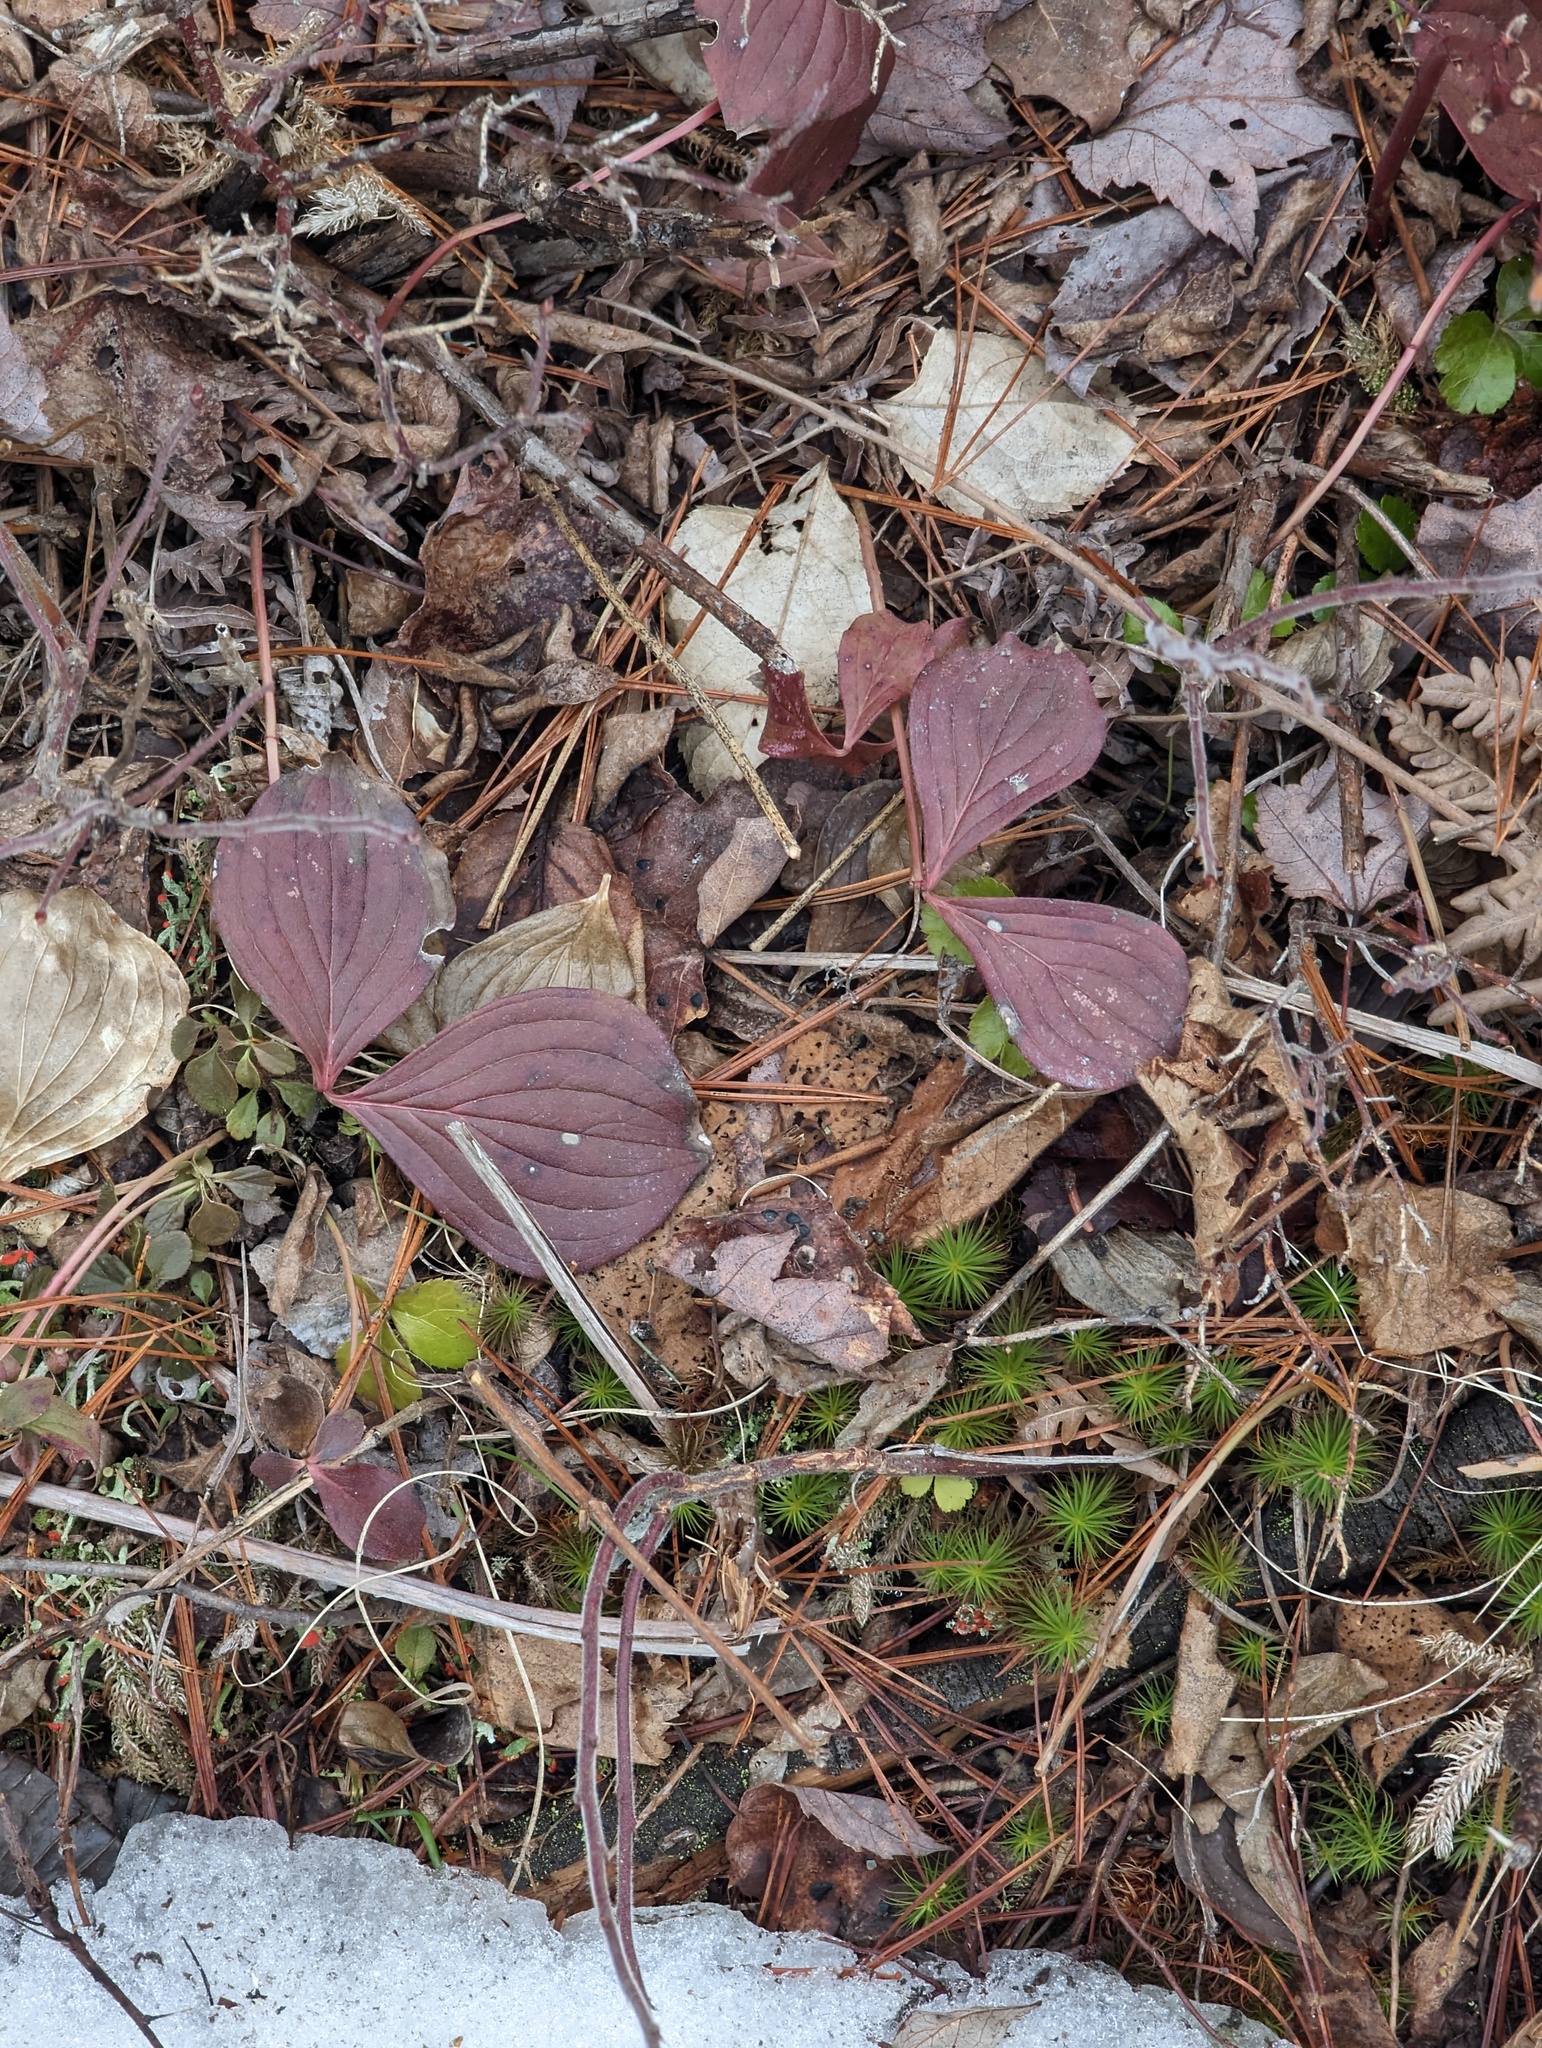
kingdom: Plantae
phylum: Tracheophyta
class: Magnoliopsida
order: Cornales
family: Cornaceae
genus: Cornus
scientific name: Cornus canadensis
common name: Creeping dogwood
